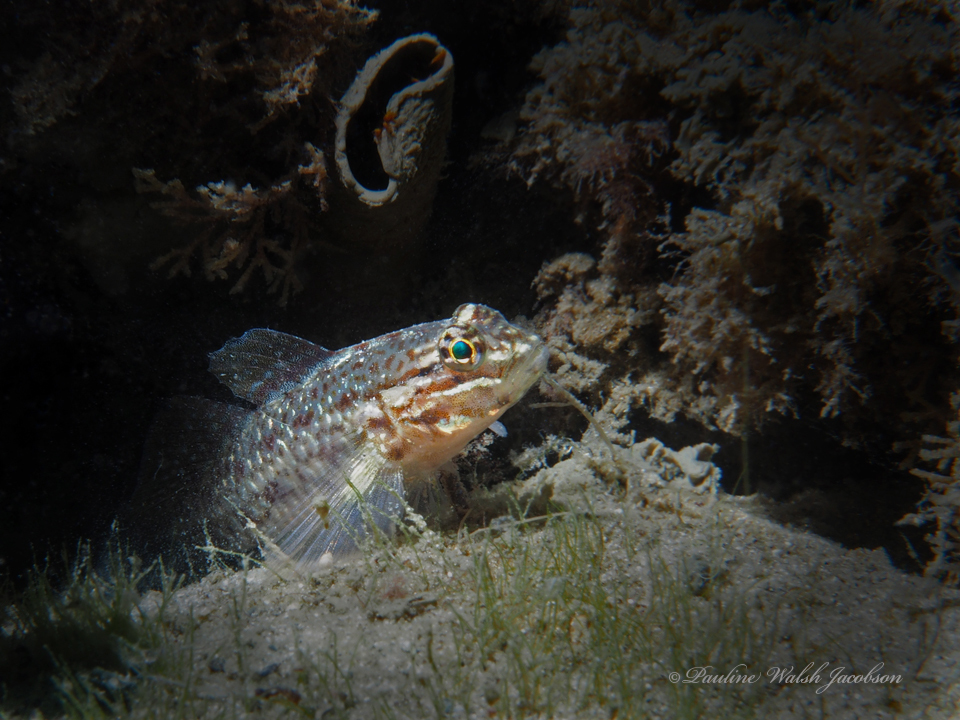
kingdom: Animalia
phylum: Chordata
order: Perciformes
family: Gobiidae
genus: Coryphopterus
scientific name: Coryphopterus dicrus
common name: Colon goby
